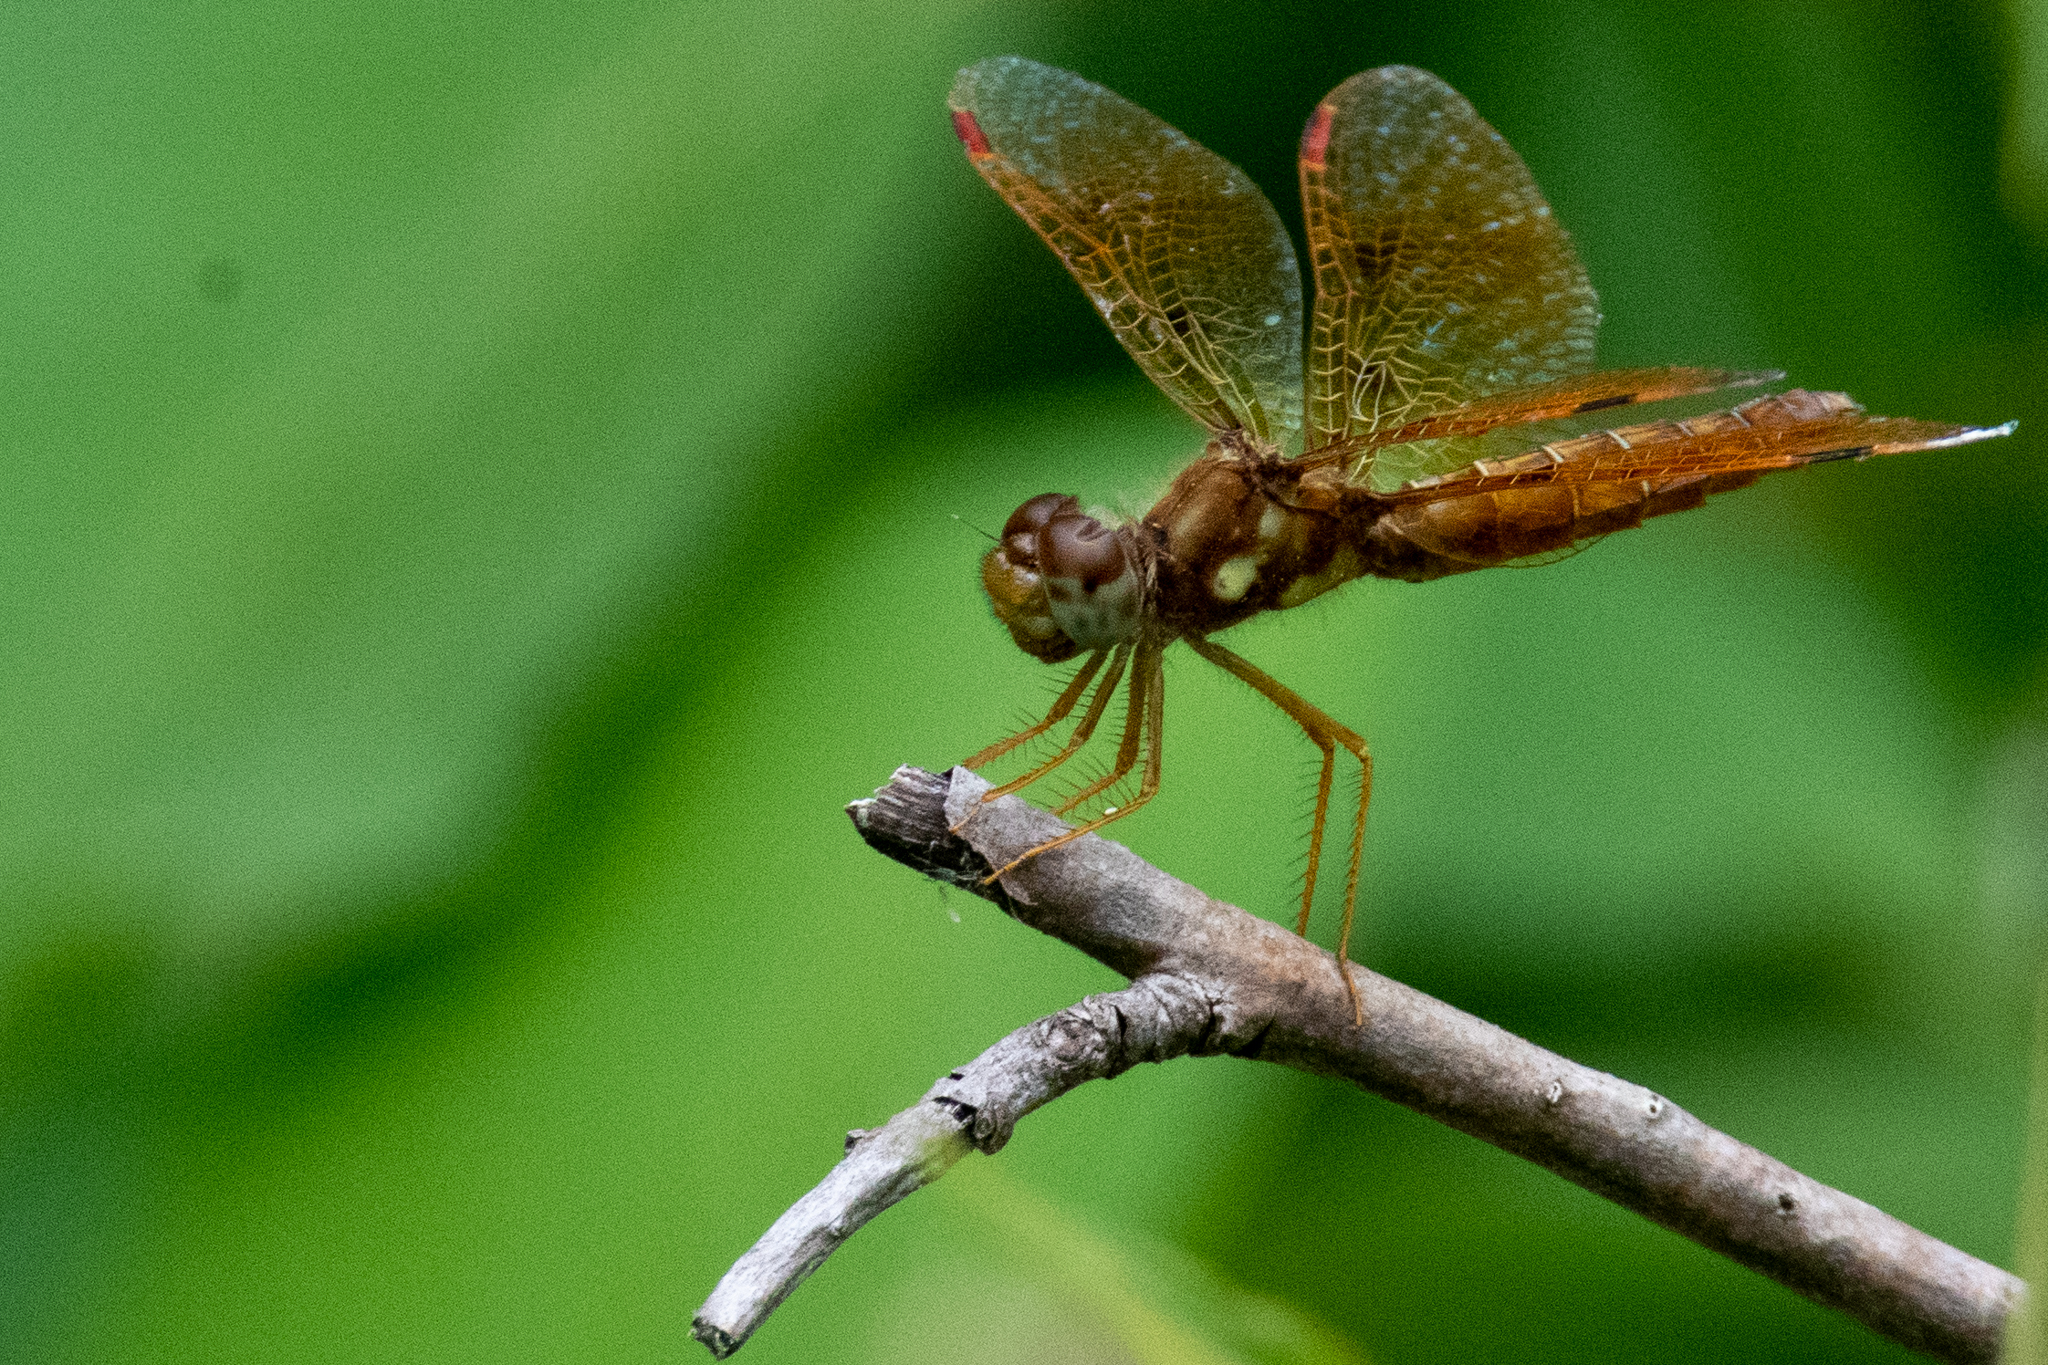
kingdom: Animalia
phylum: Arthropoda
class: Insecta
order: Odonata
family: Libellulidae
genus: Perithemis
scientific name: Perithemis tenera
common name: Eastern amberwing
